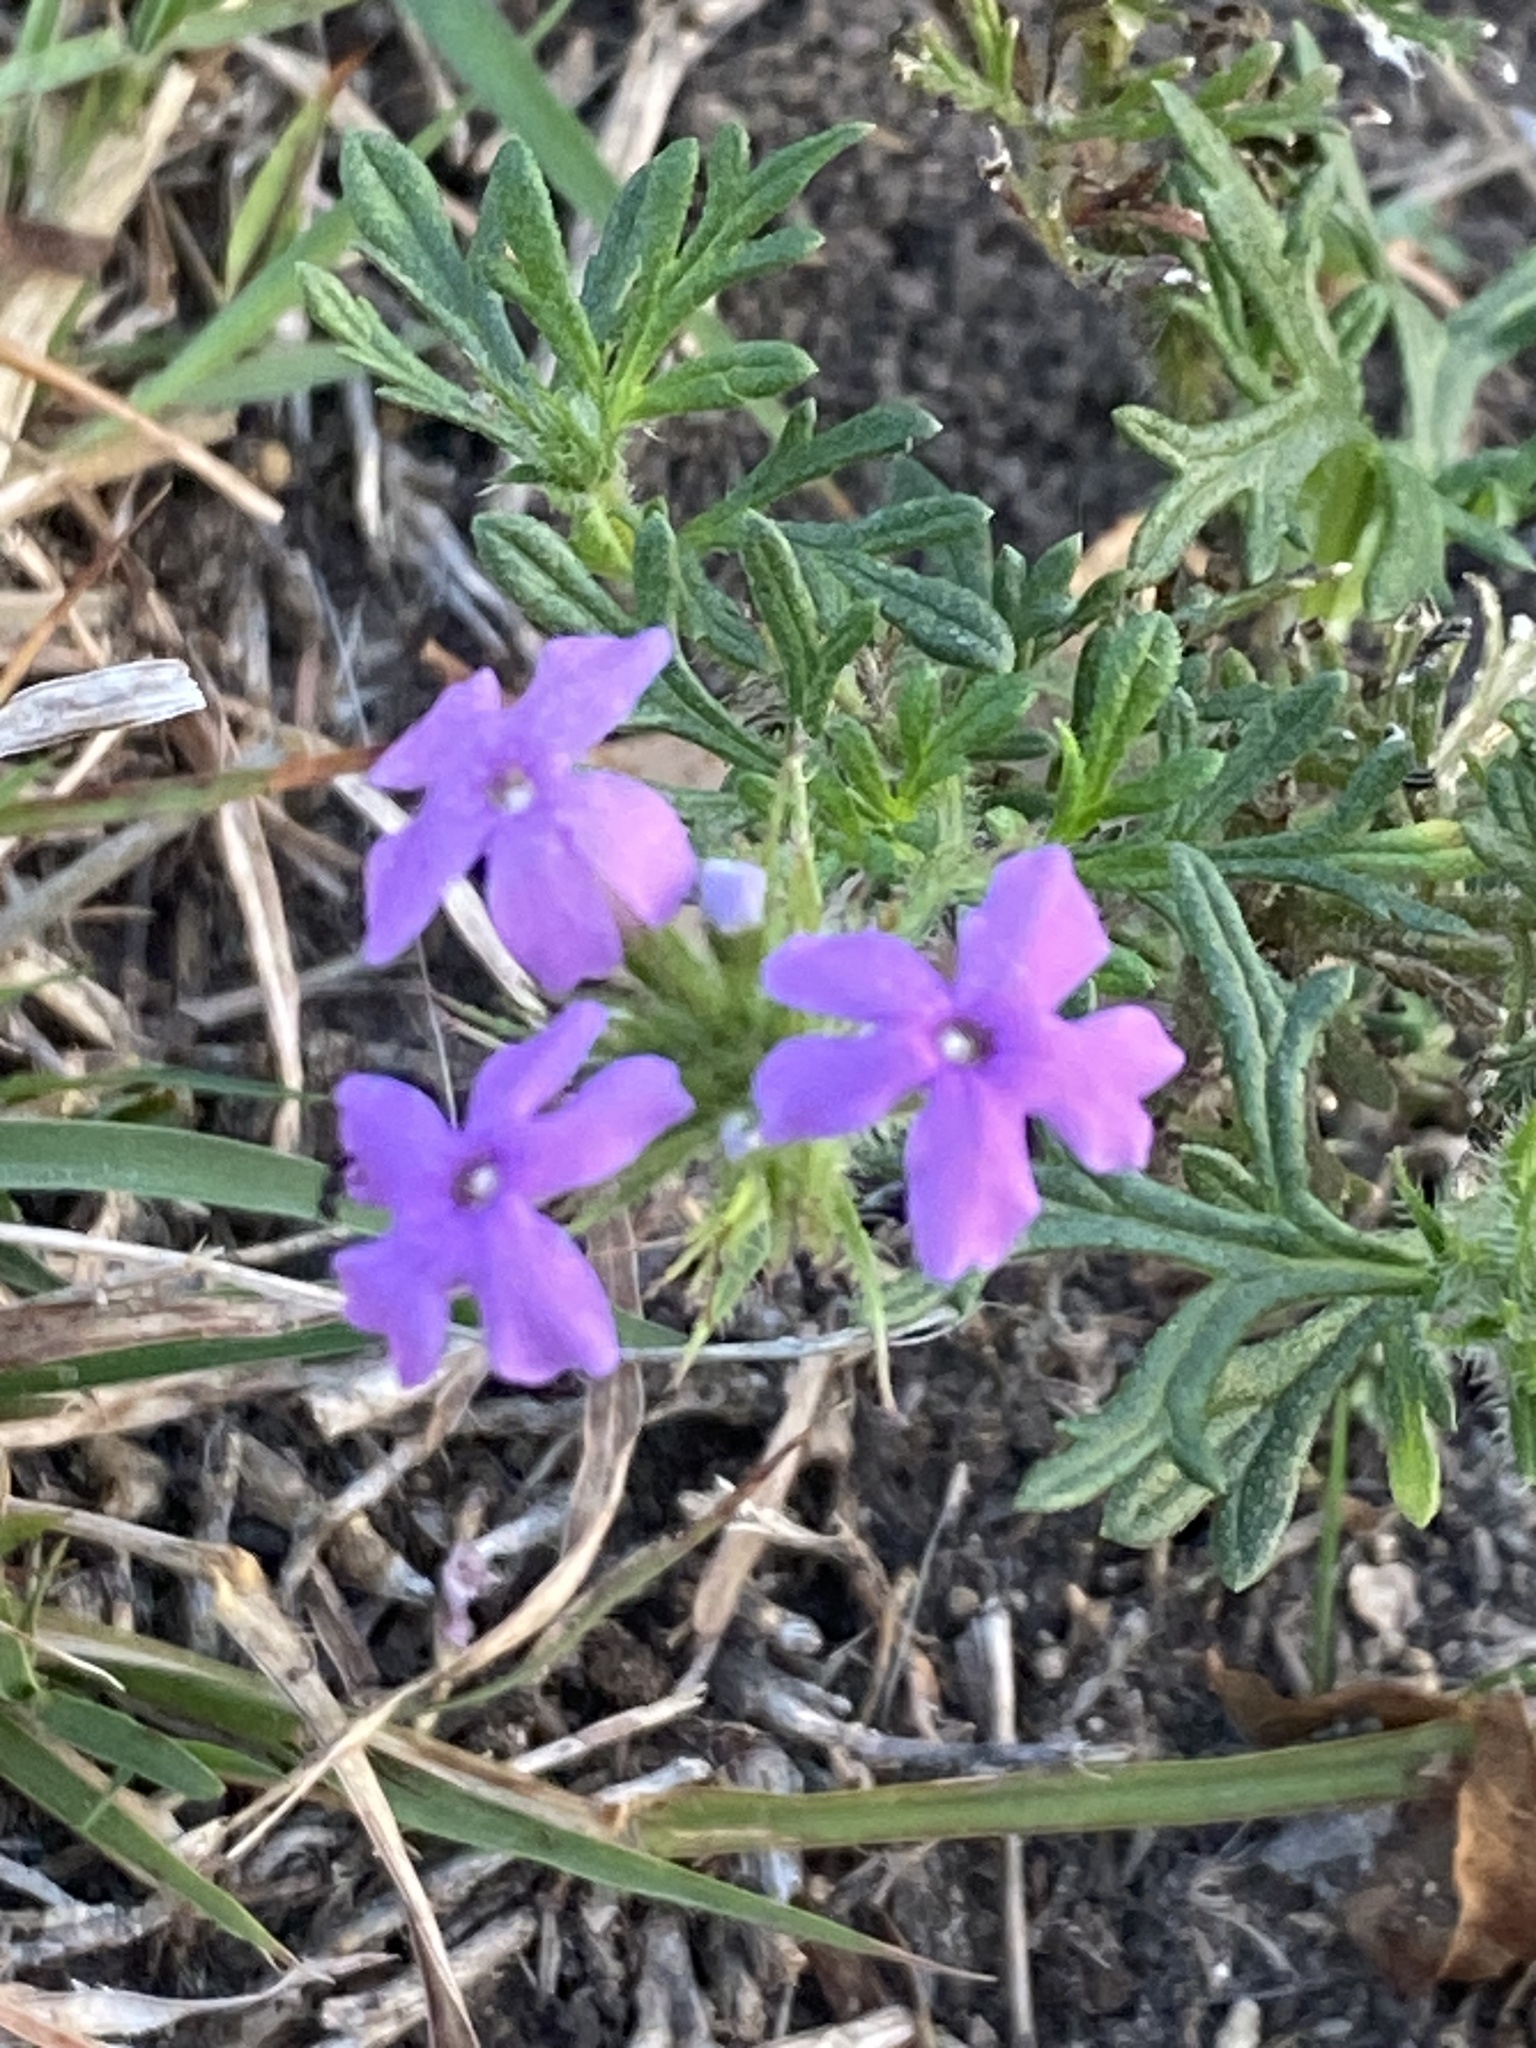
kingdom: Plantae
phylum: Tracheophyta
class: Magnoliopsida
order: Lamiales
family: Verbenaceae
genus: Verbena
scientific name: Verbena bipinnatifida
